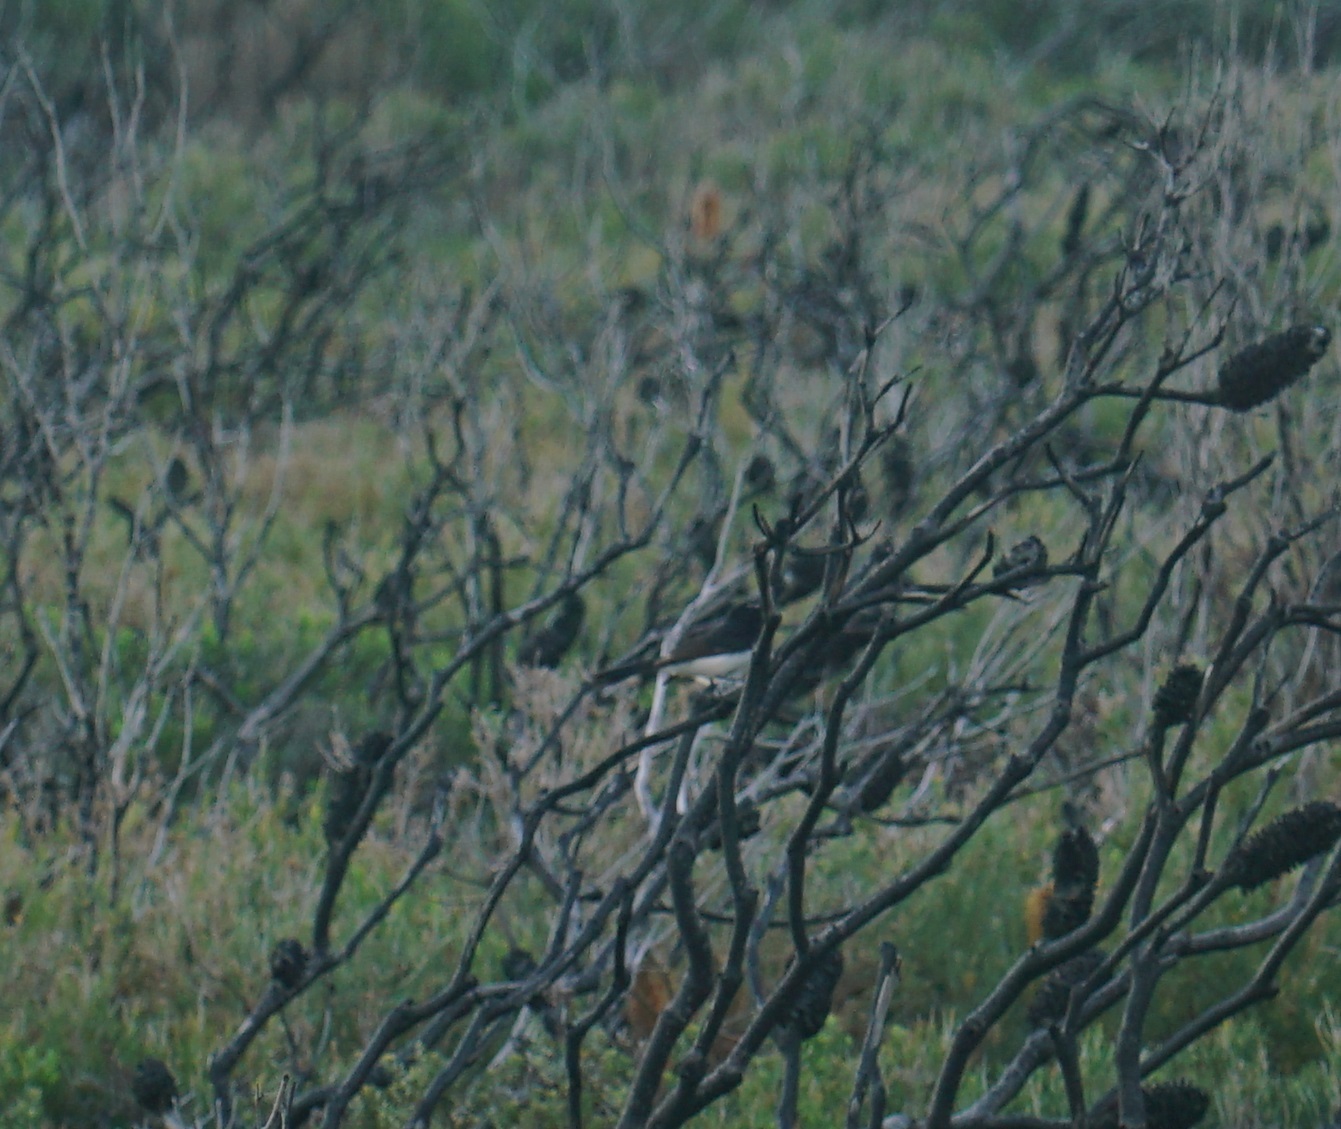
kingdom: Animalia
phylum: Chordata
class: Aves
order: Passeriformes
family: Rhipiduridae
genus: Rhipidura
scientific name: Rhipidura leucophrys
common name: Willie wagtail
